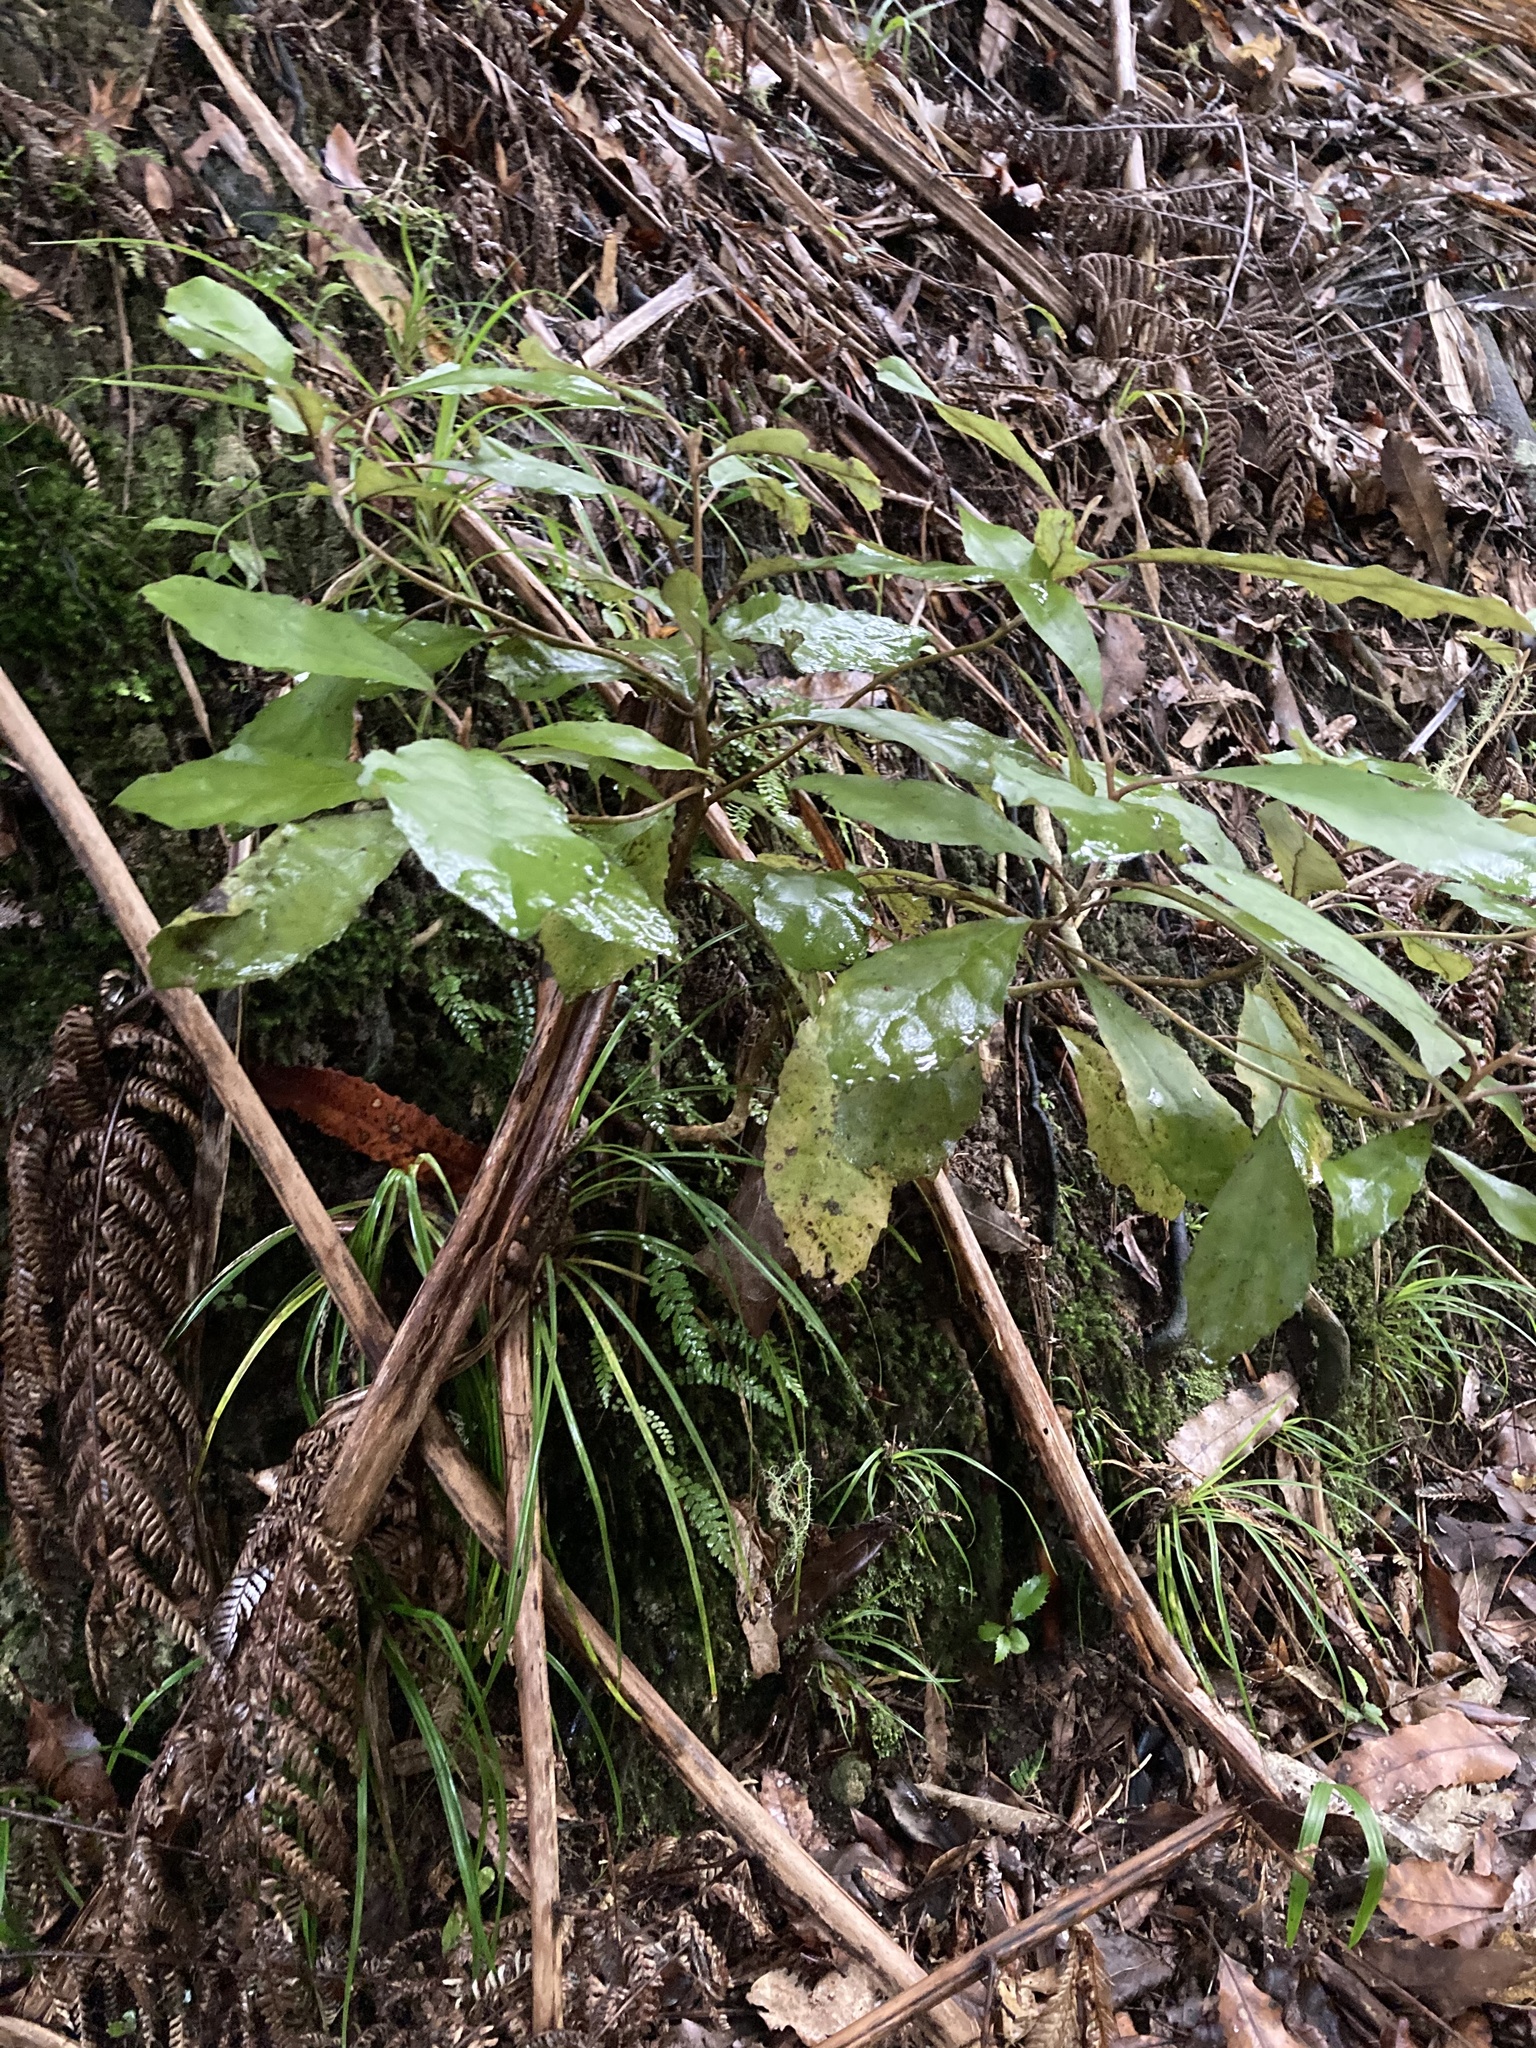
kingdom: Plantae
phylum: Tracheophyta
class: Magnoliopsida
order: Asterales
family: Asteraceae
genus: Olearia
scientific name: Olearia rani
